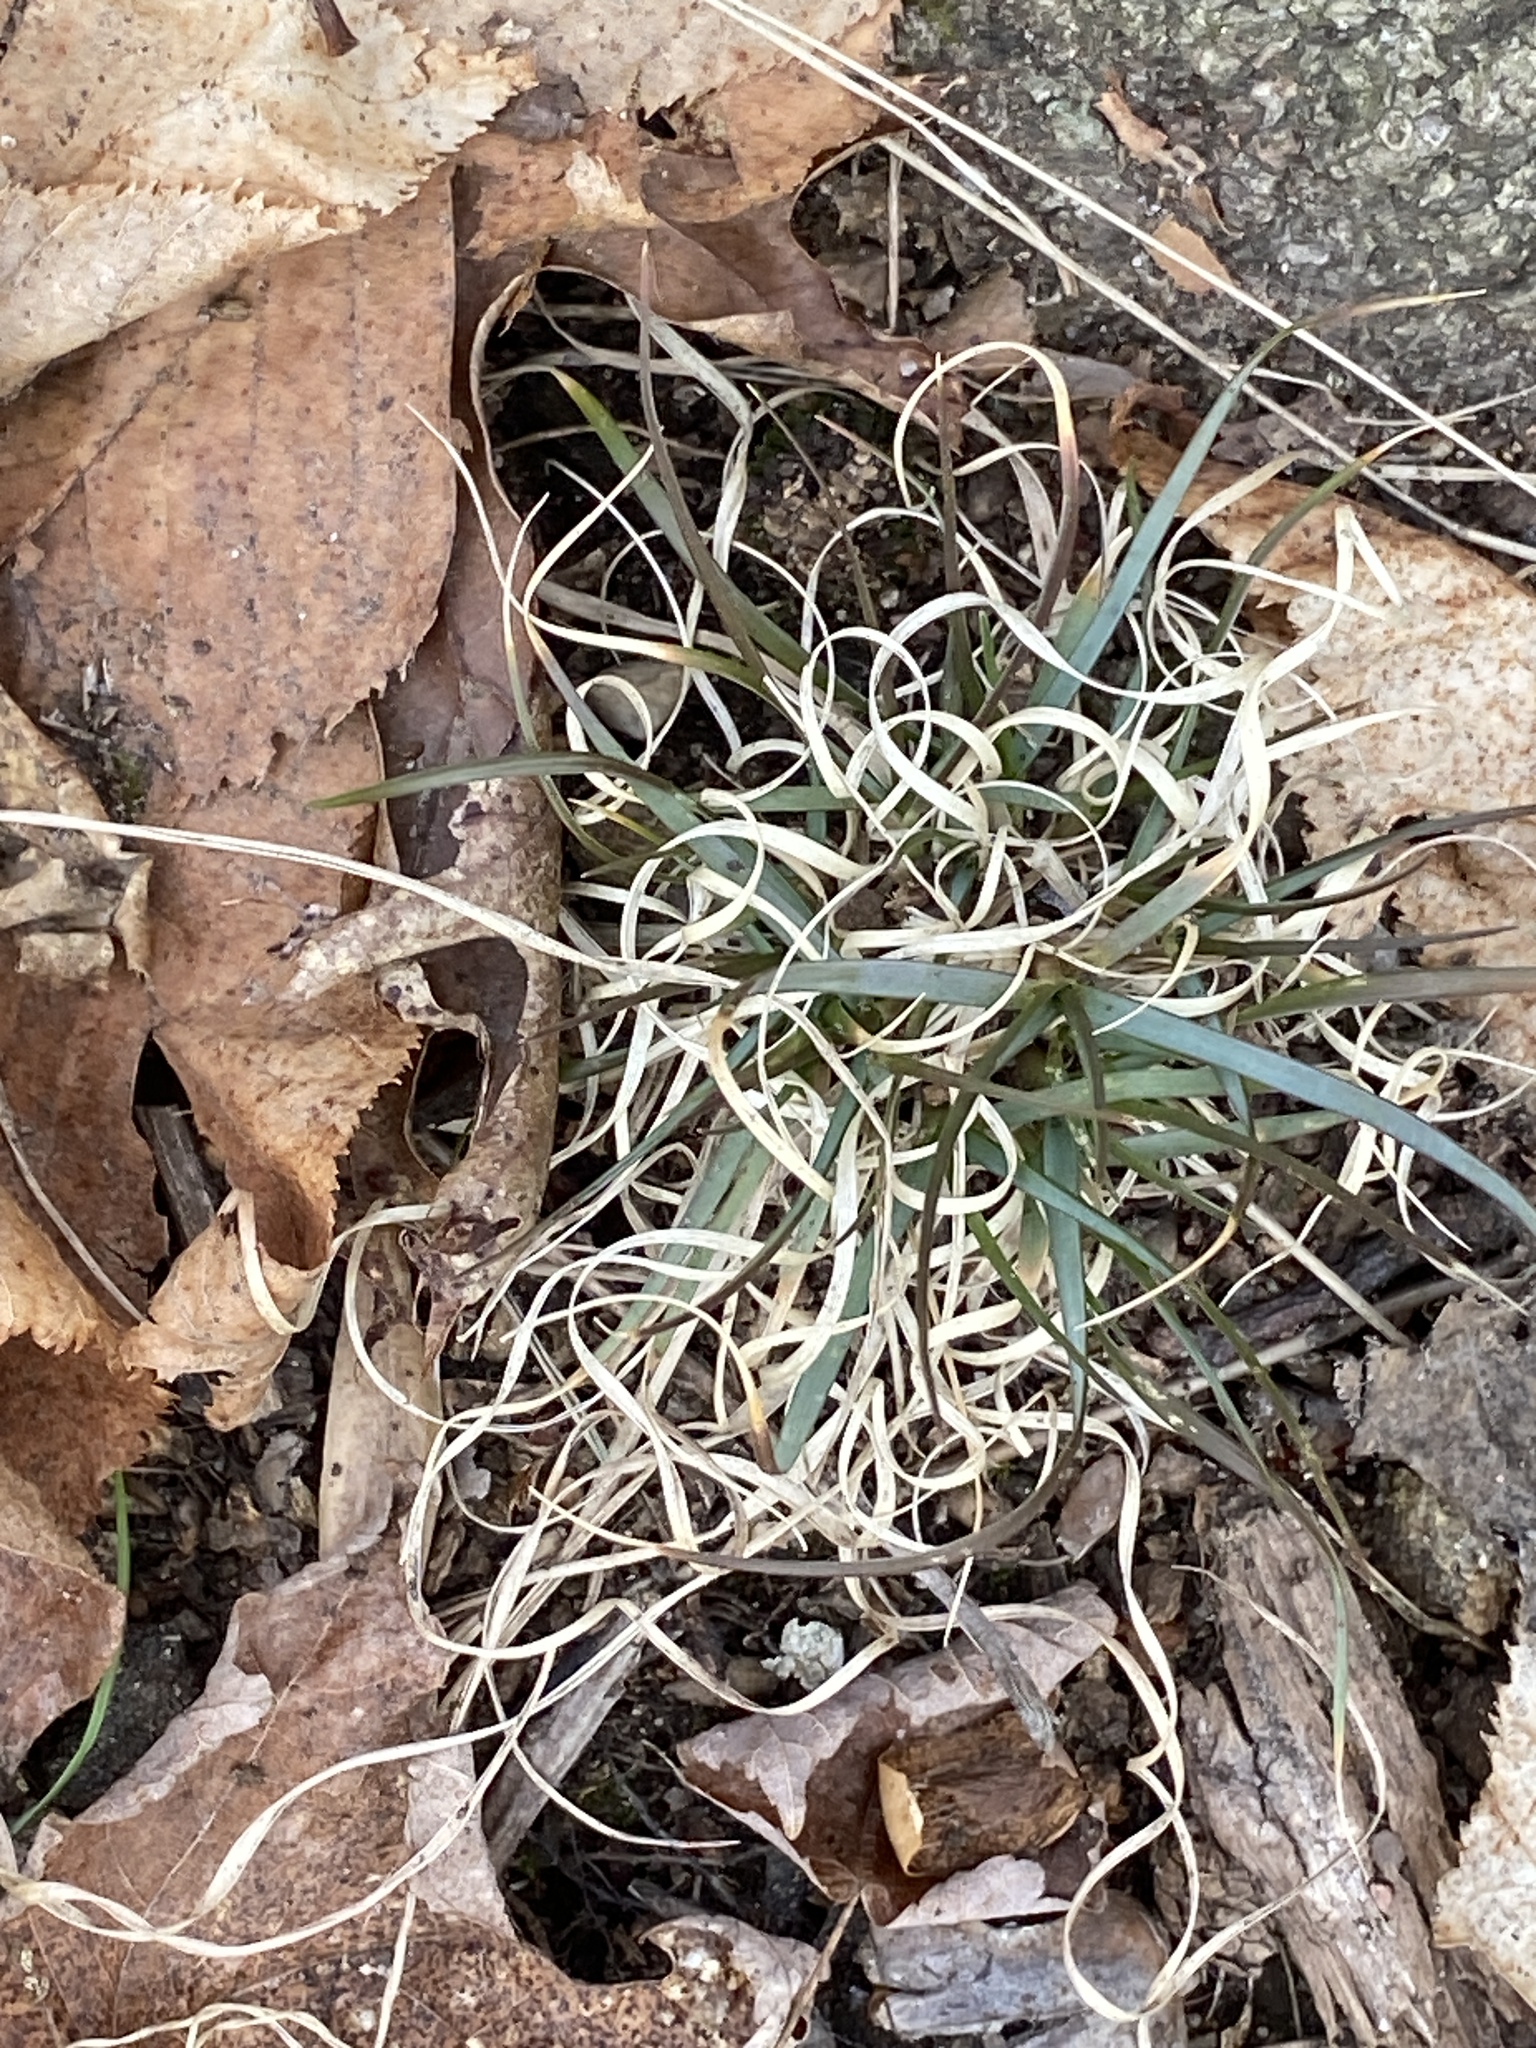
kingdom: Plantae
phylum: Tracheophyta
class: Liliopsida
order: Poales
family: Poaceae
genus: Danthonia
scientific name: Danthonia spicata
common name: Common wild oatgrass
